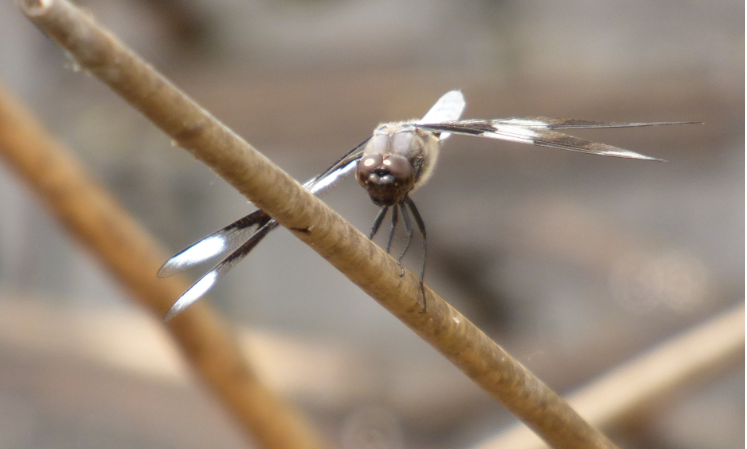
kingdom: Animalia
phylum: Arthropoda
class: Insecta
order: Odonata
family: Libellulidae
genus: Libellula
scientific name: Libellula forensis
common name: Eight-spotted skimmer
